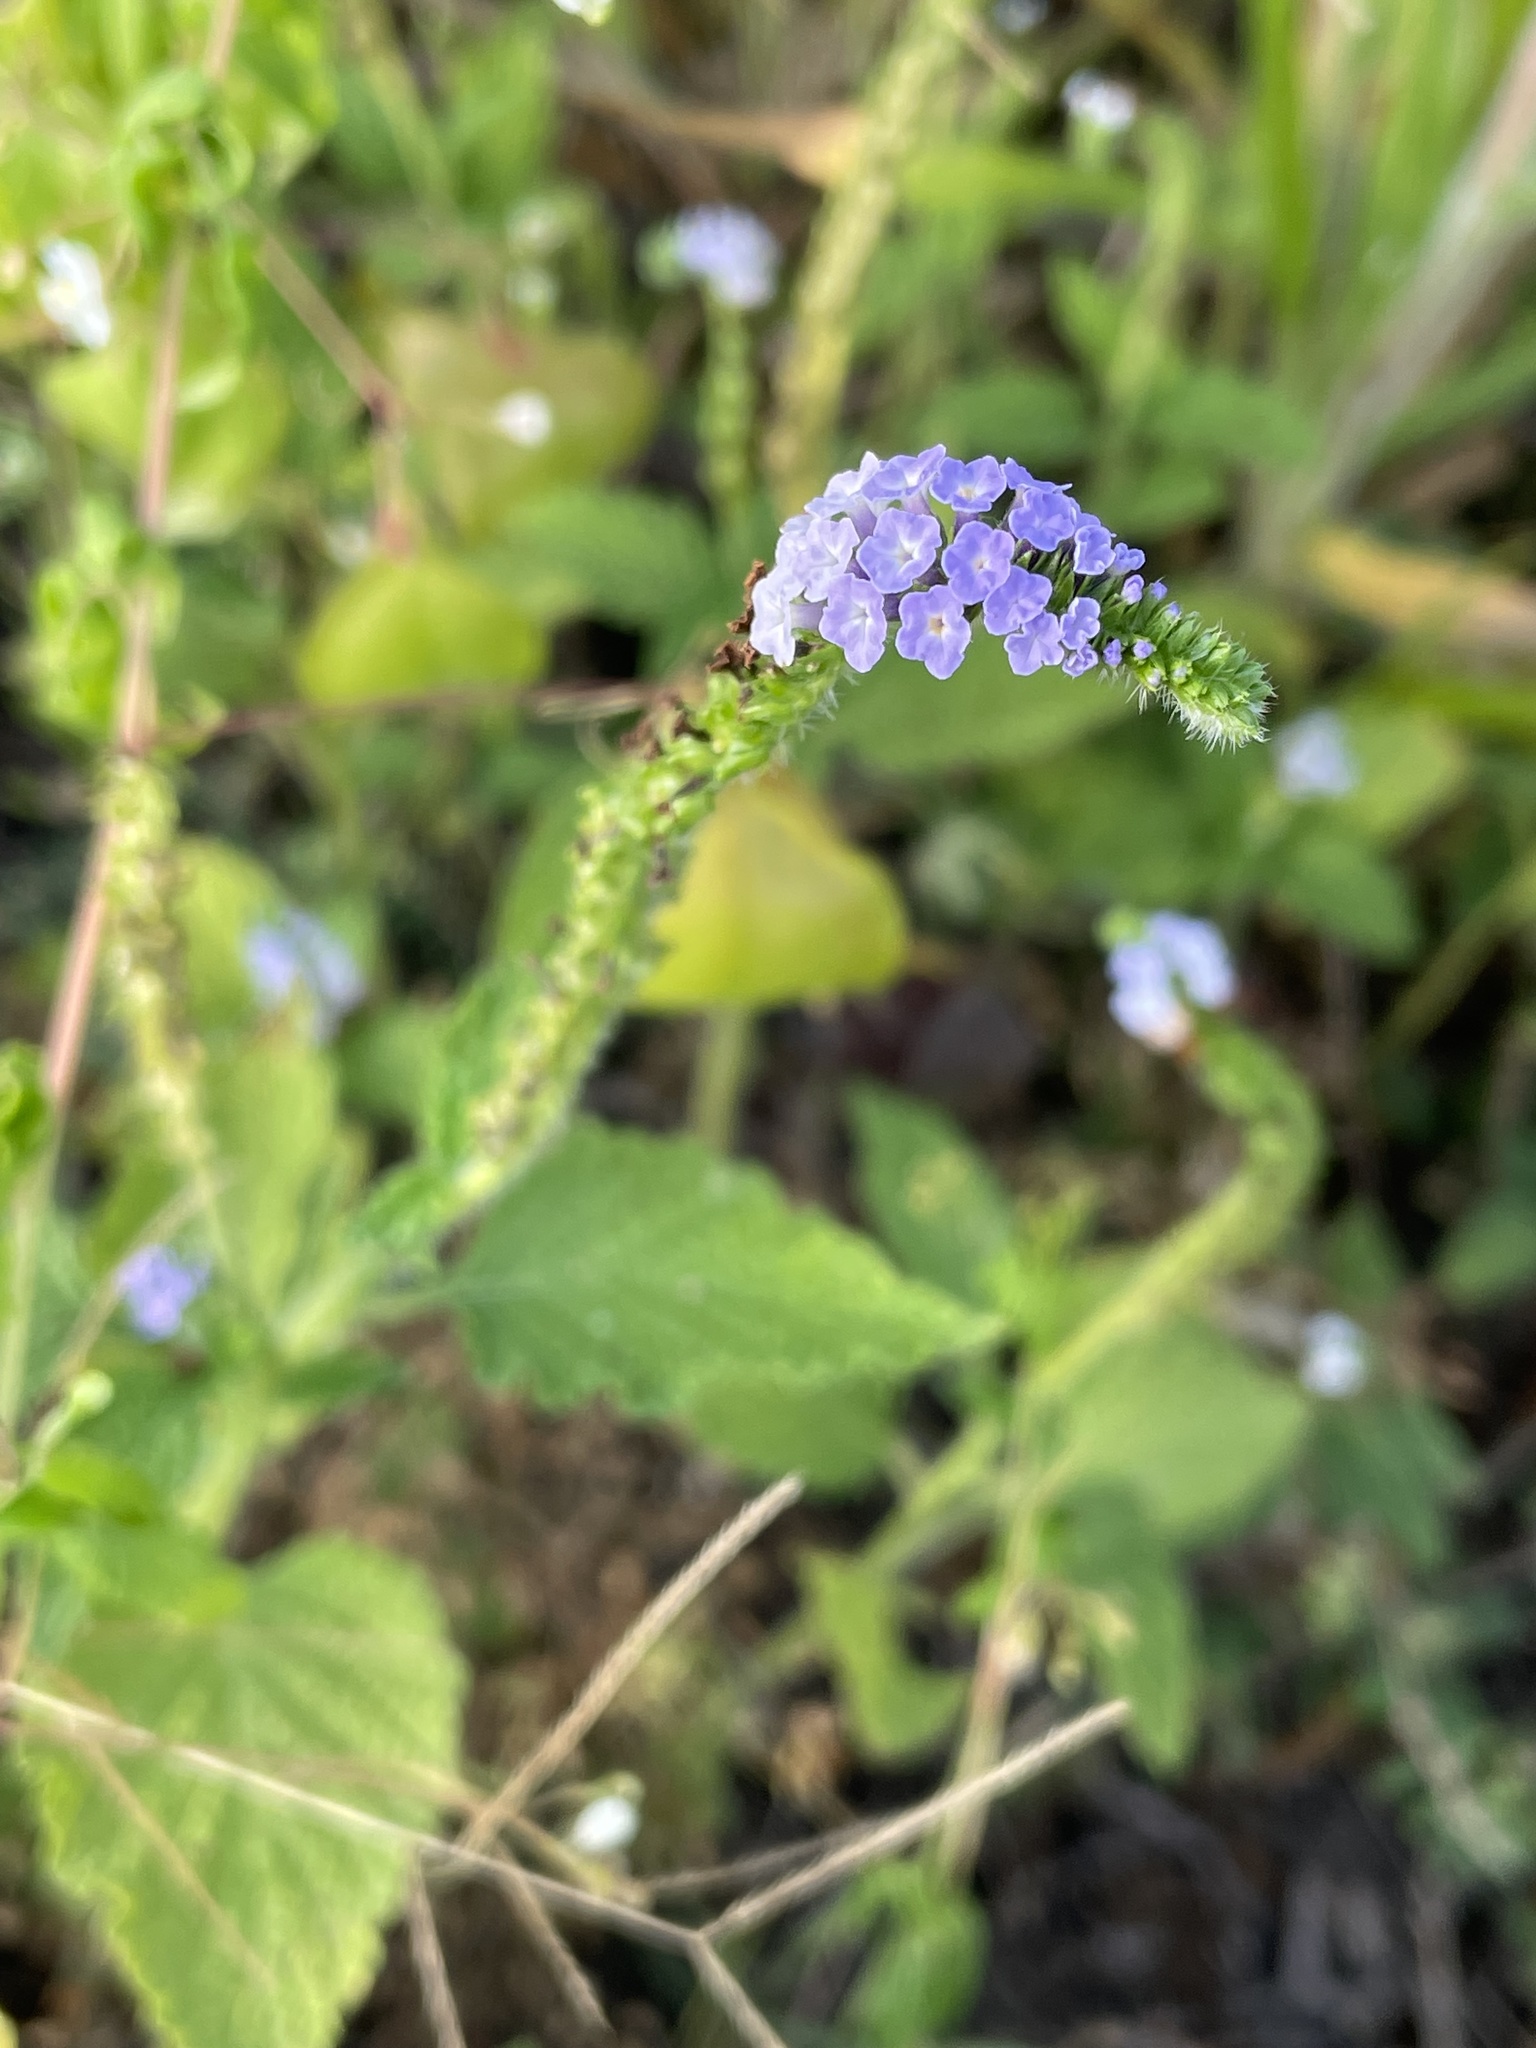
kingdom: Plantae
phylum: Tracheophyta
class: Magnoliopsida
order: Boraginales
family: Heliotropiaceae
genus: Heliotropium
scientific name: Heliotropium indicum
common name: Indian heliotrope
